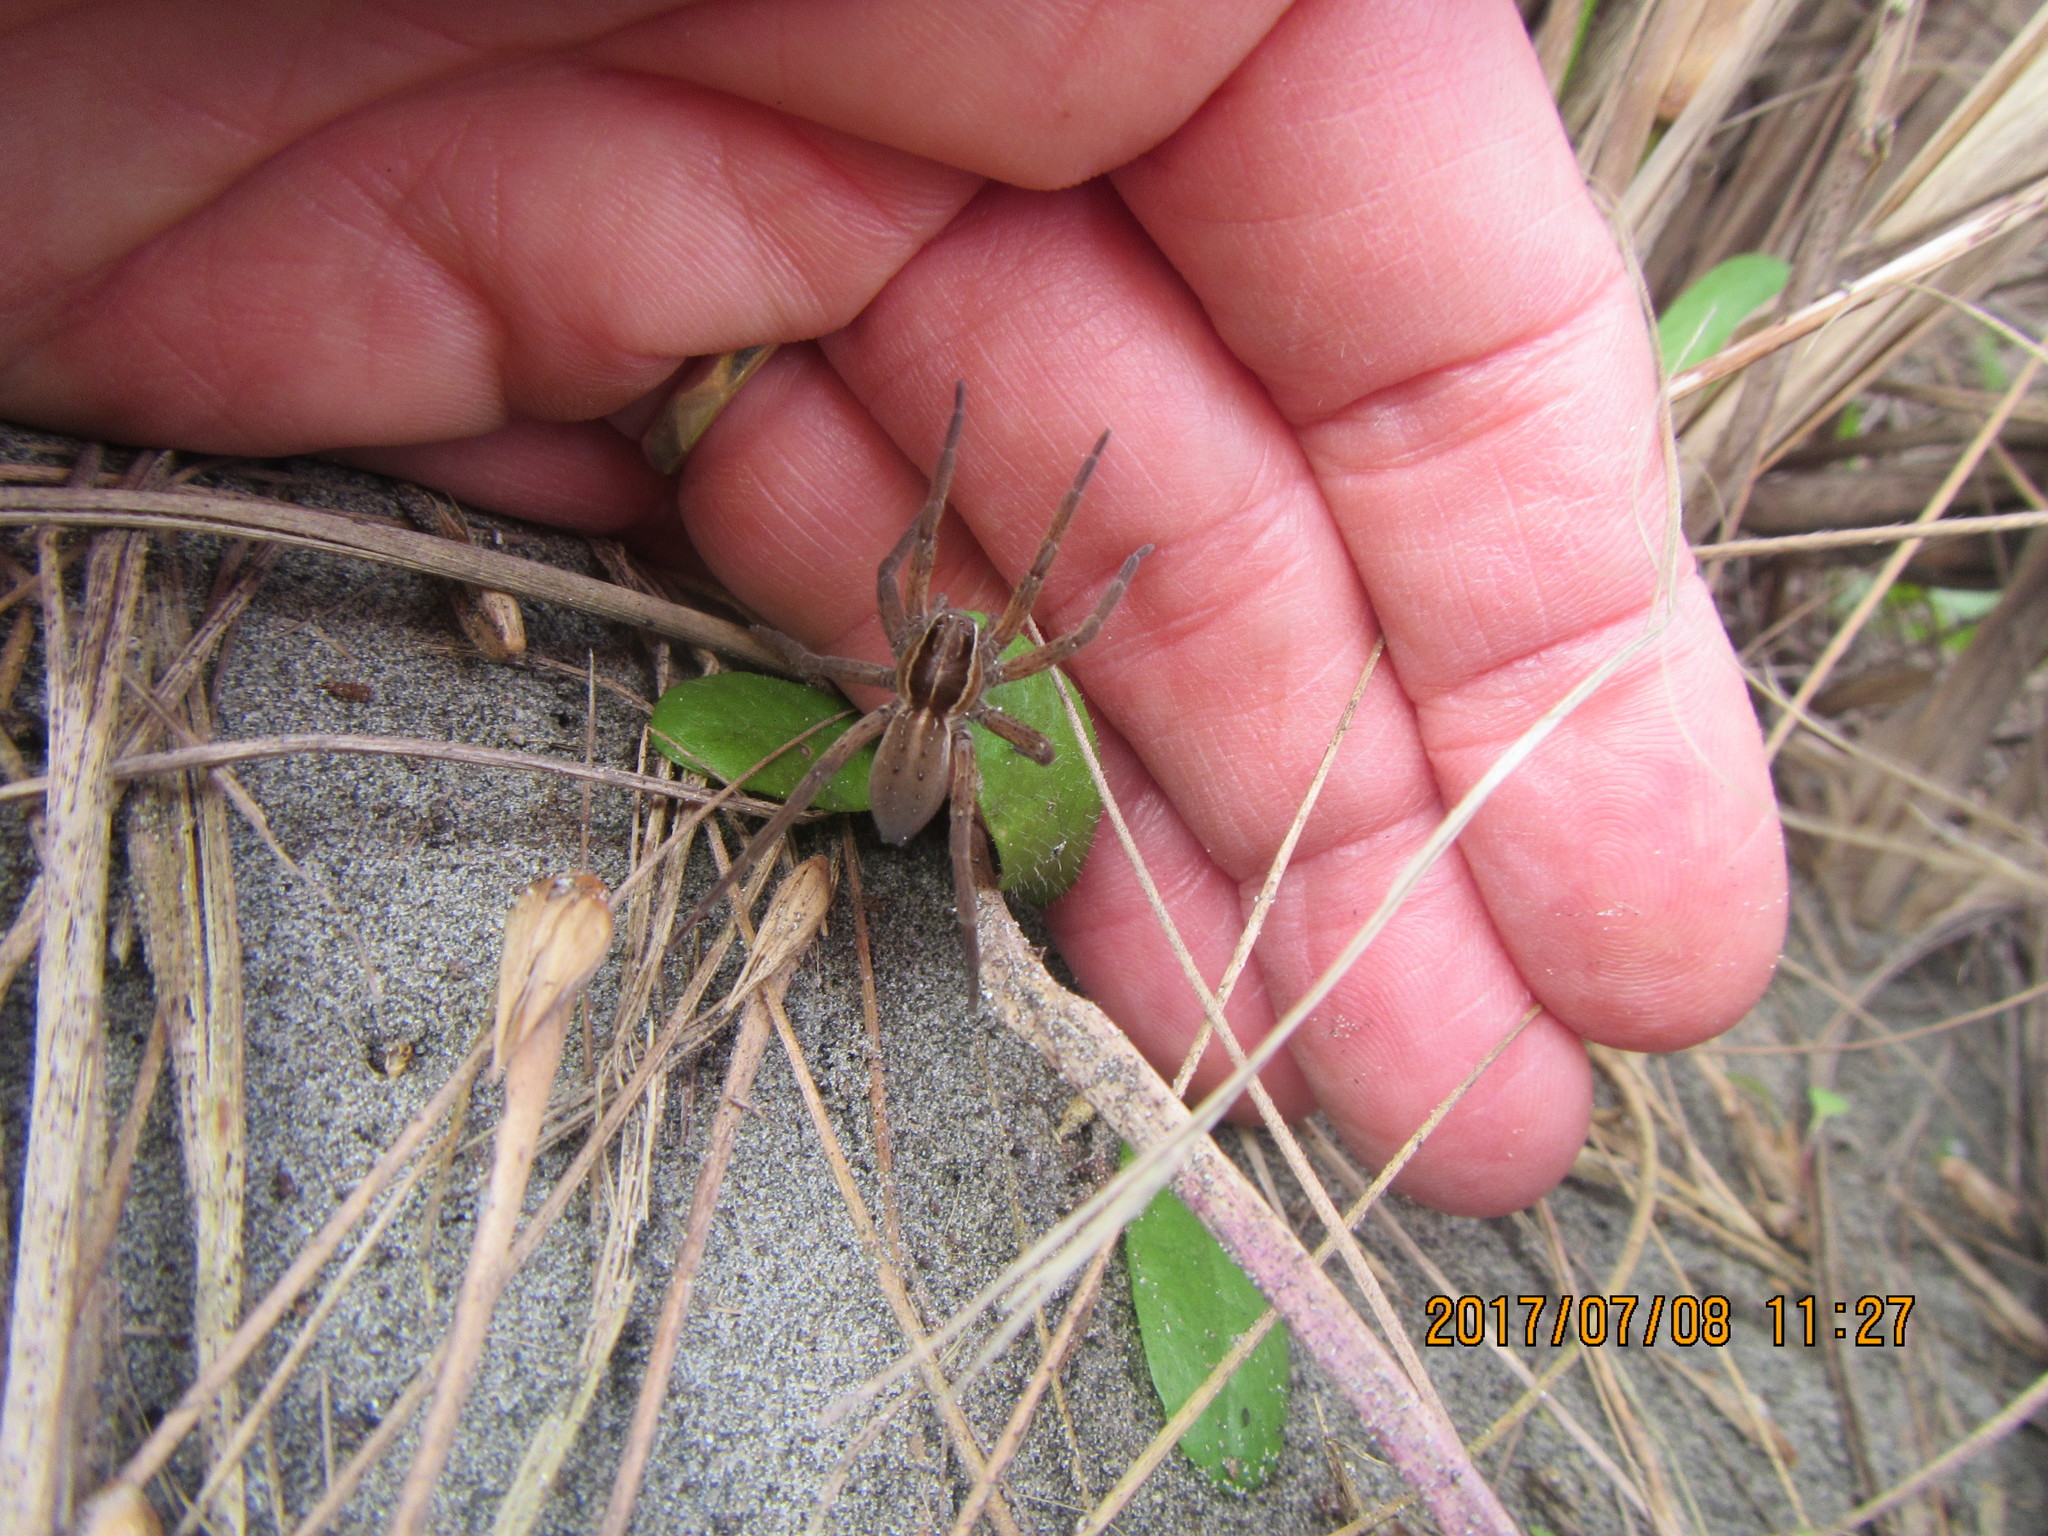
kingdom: Animalia
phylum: Arthropoda
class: Arachnida
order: Araneae
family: Pisauridae
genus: Dolomedes
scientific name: Dolomedes minor
